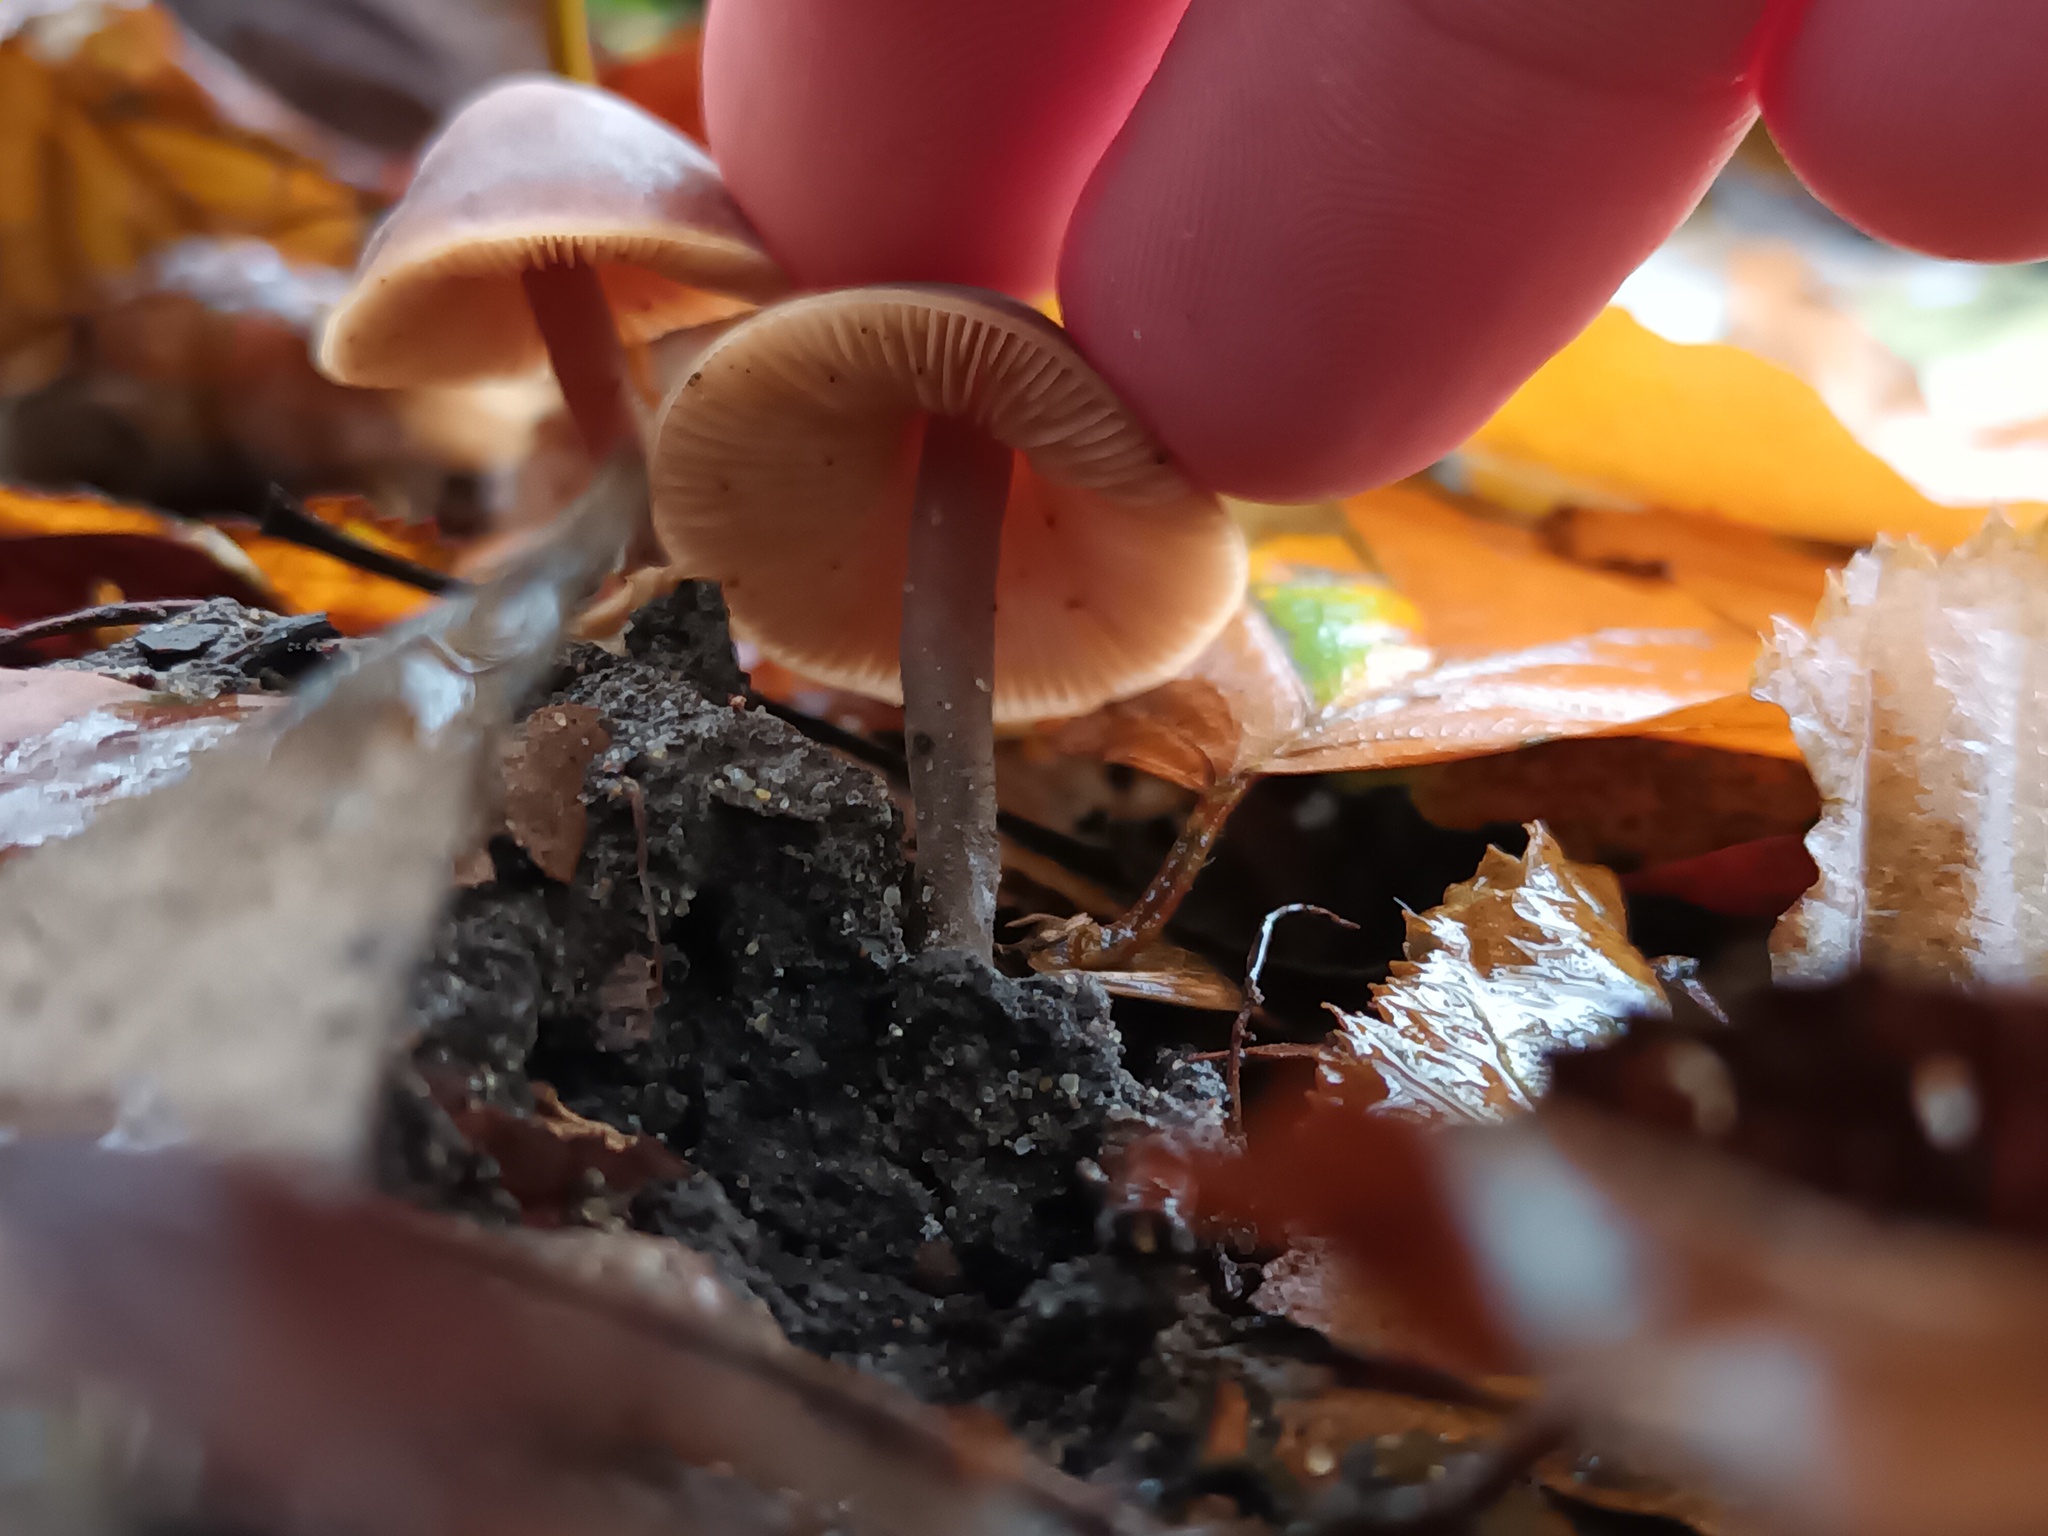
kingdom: Fungi
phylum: Basidiomycota
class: Agaricomycetes
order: Agaricales
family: Macrocystidiaceae
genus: Macrocystidia
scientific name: Macrocystidia cucumis
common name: Cucumber cap
